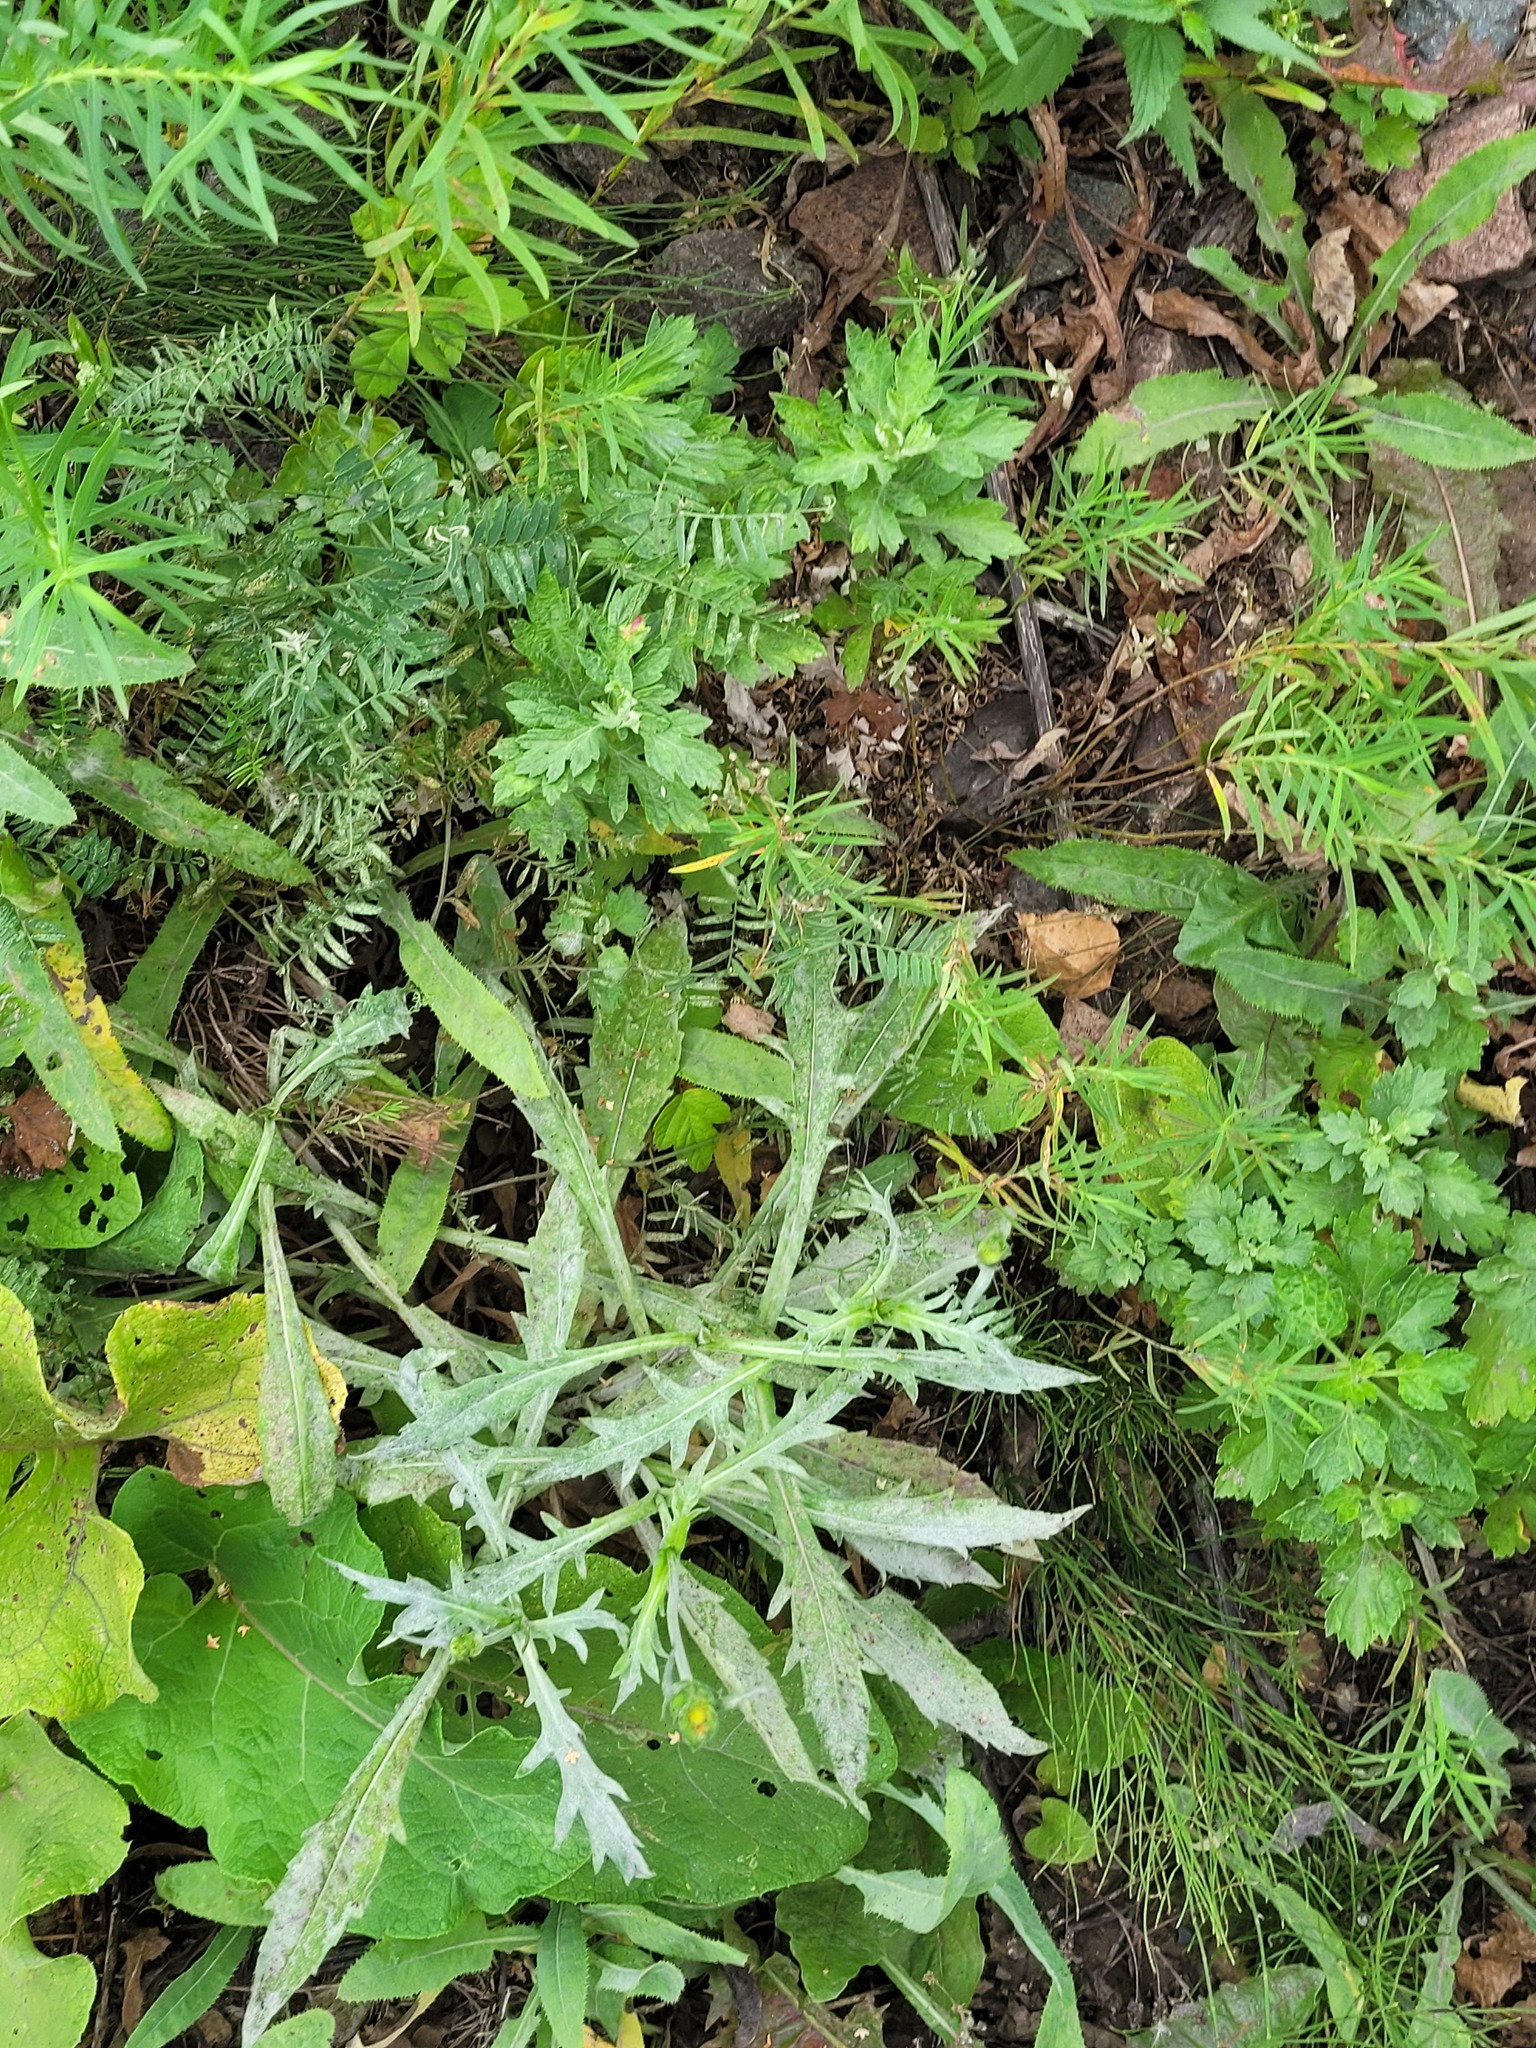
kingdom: Plantae
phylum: Tracheophyta
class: Magnoliopsida
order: Dipsacales
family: Caprifoliaceae
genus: Knautia
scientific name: Knautia arvensis
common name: Field scabiosa
